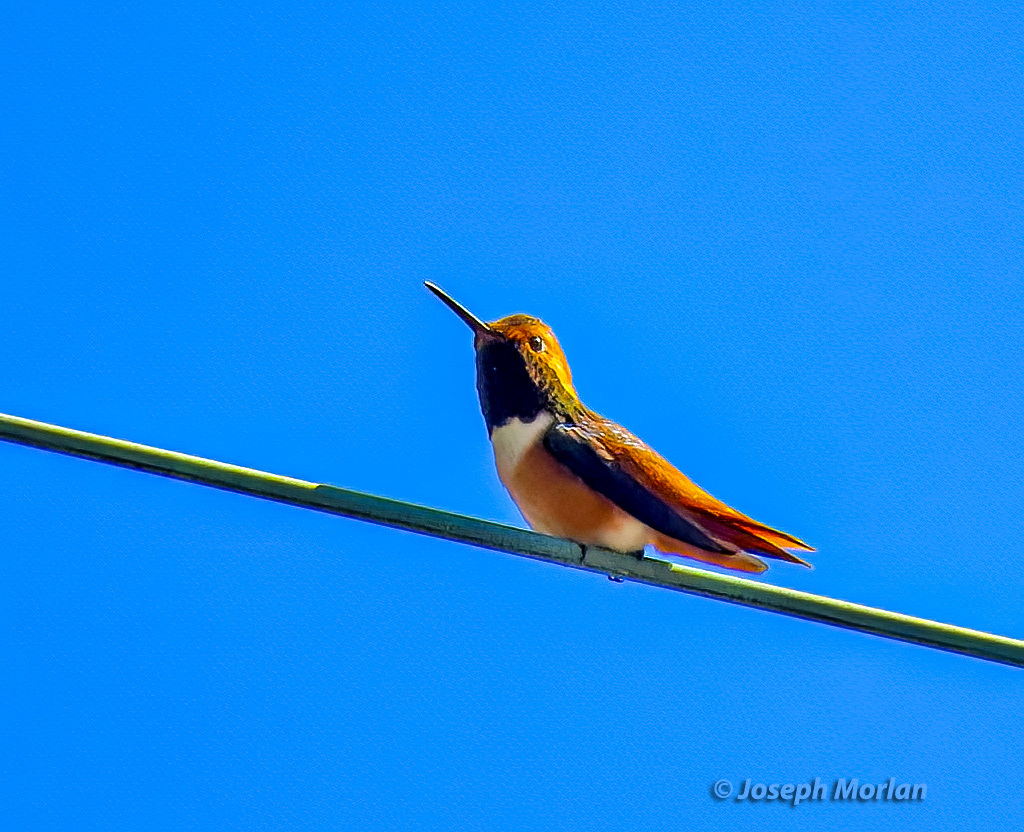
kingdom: Animalia
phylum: Chordata
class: Aves
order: Apodiformes
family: Trochilidae
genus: Selasphorus
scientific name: Selasphorus sasin
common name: Allen's hummingbird
